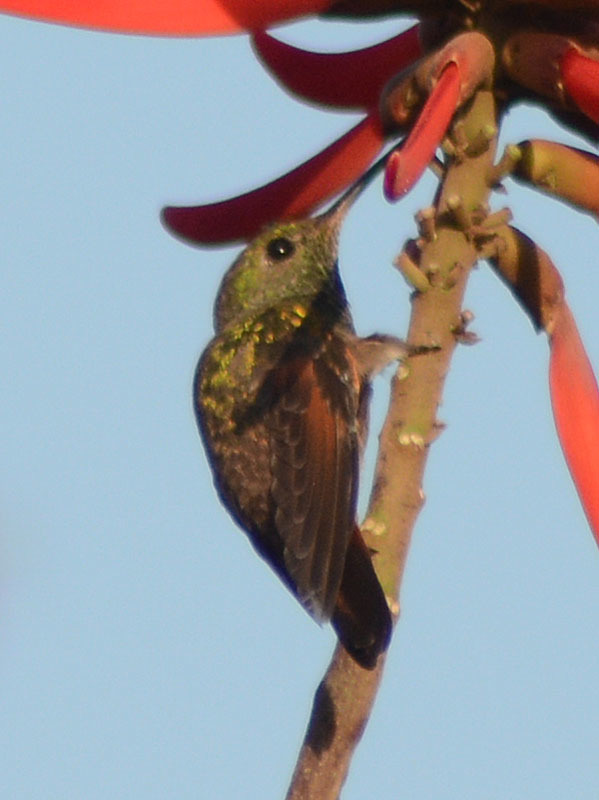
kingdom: Animalia
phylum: Chordata
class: Aves
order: Apodiformes
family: Trochilidae
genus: Saucerottia
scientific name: Saucerottia beryllina
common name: Berylline hummingbird
